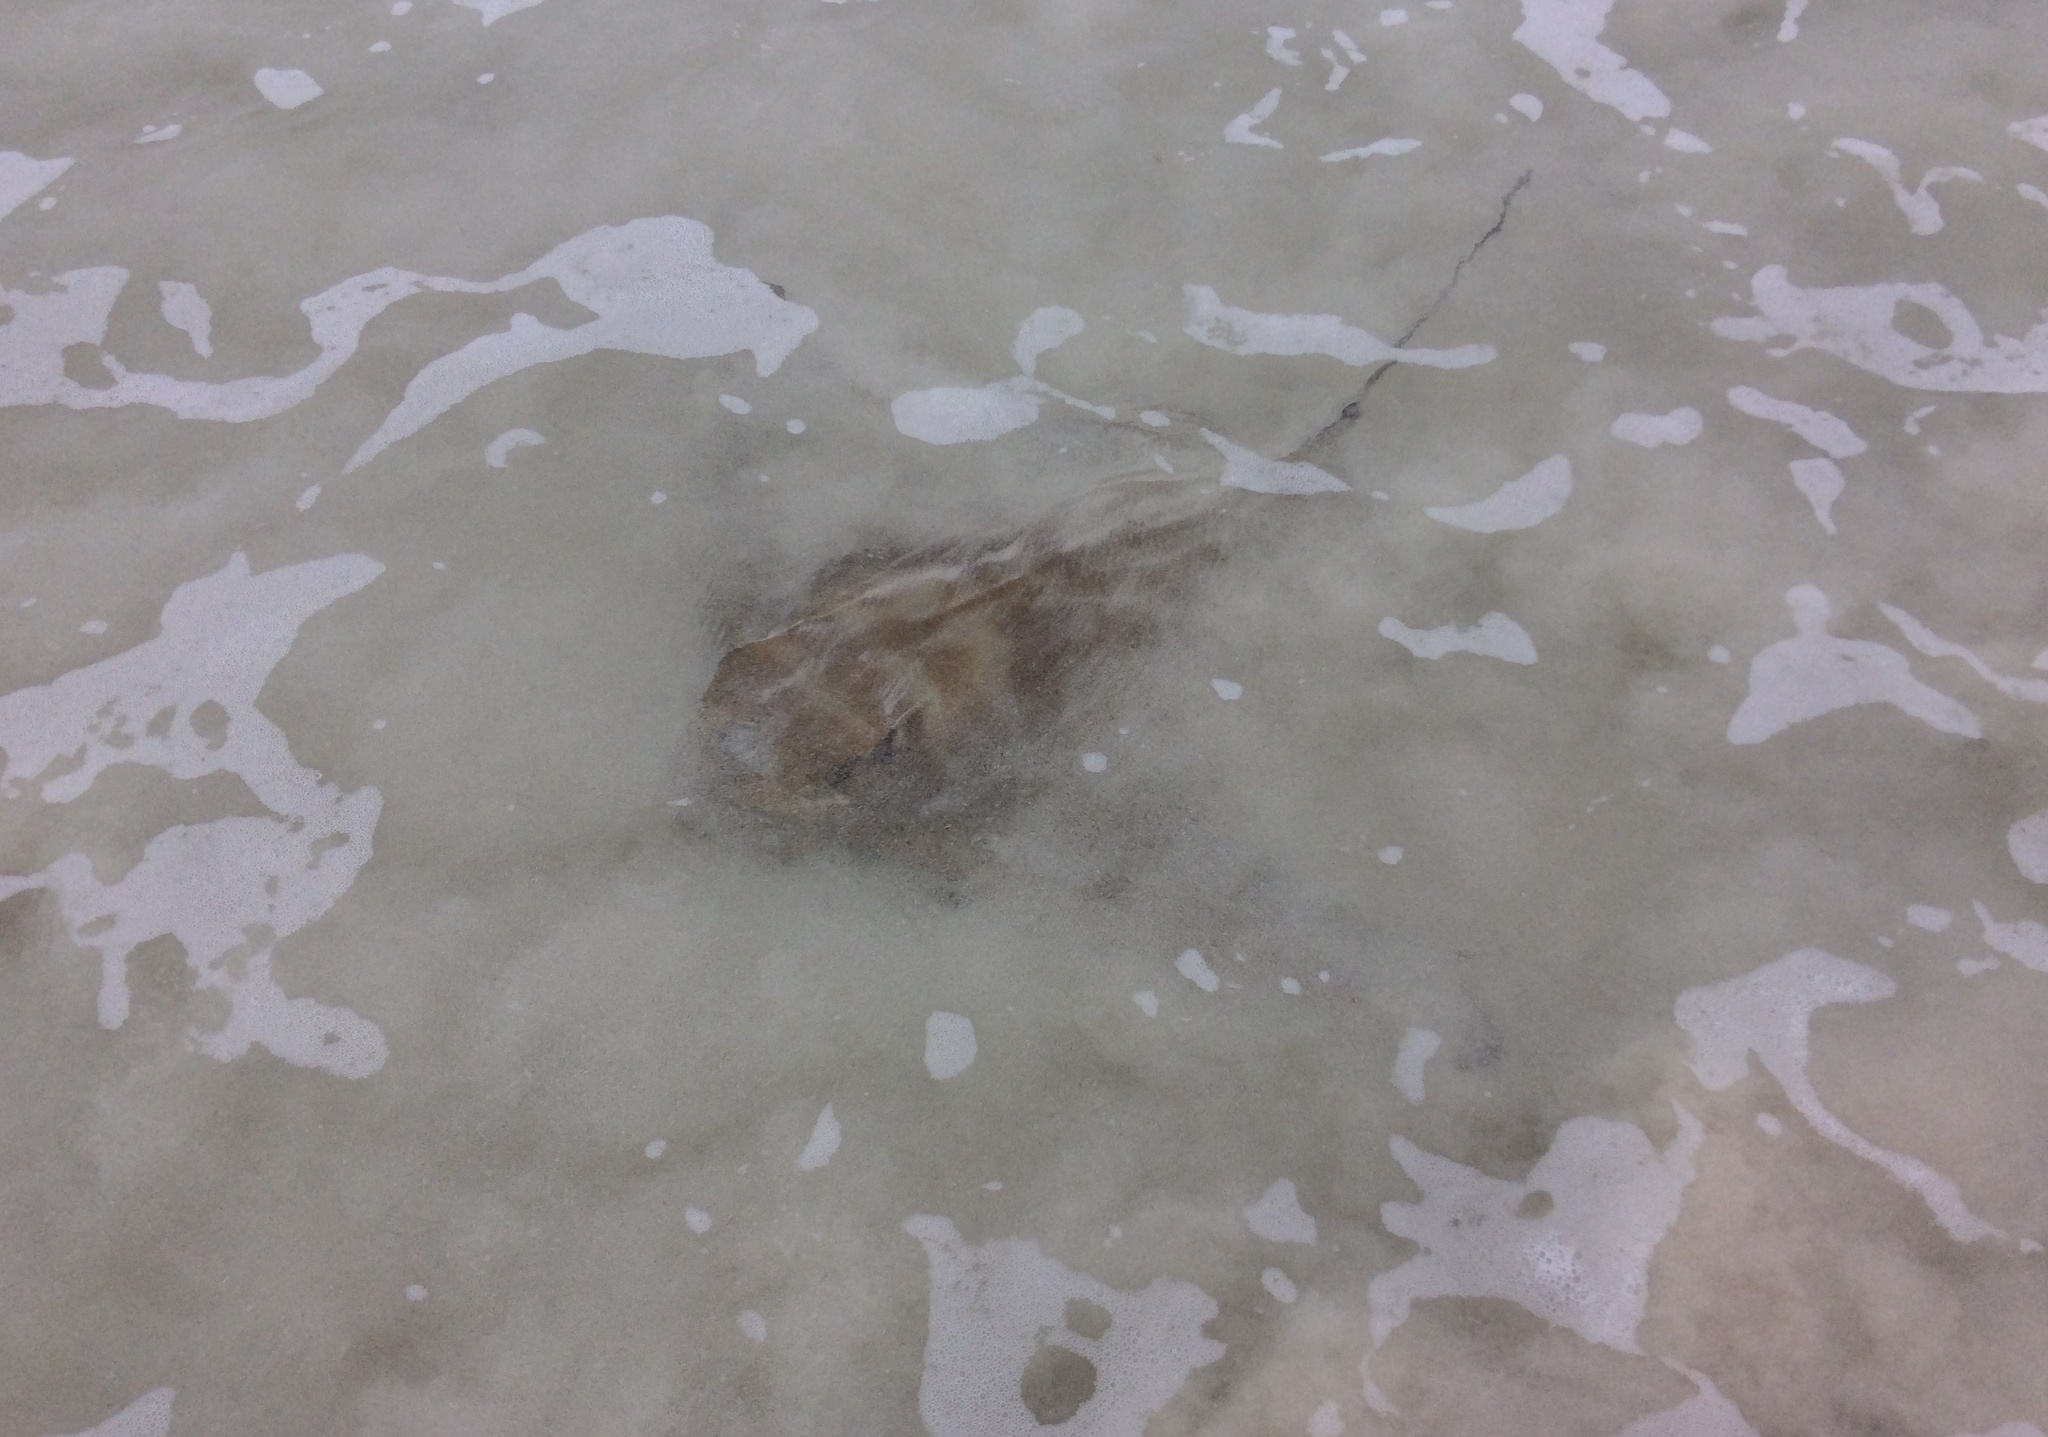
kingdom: Animalia
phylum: Chordata
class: Elasmobranchii
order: Myliobatiformes
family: Myliobatidae
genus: Myliobatis
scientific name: Myliobatis tenuicaudatus
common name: Eagle ray
